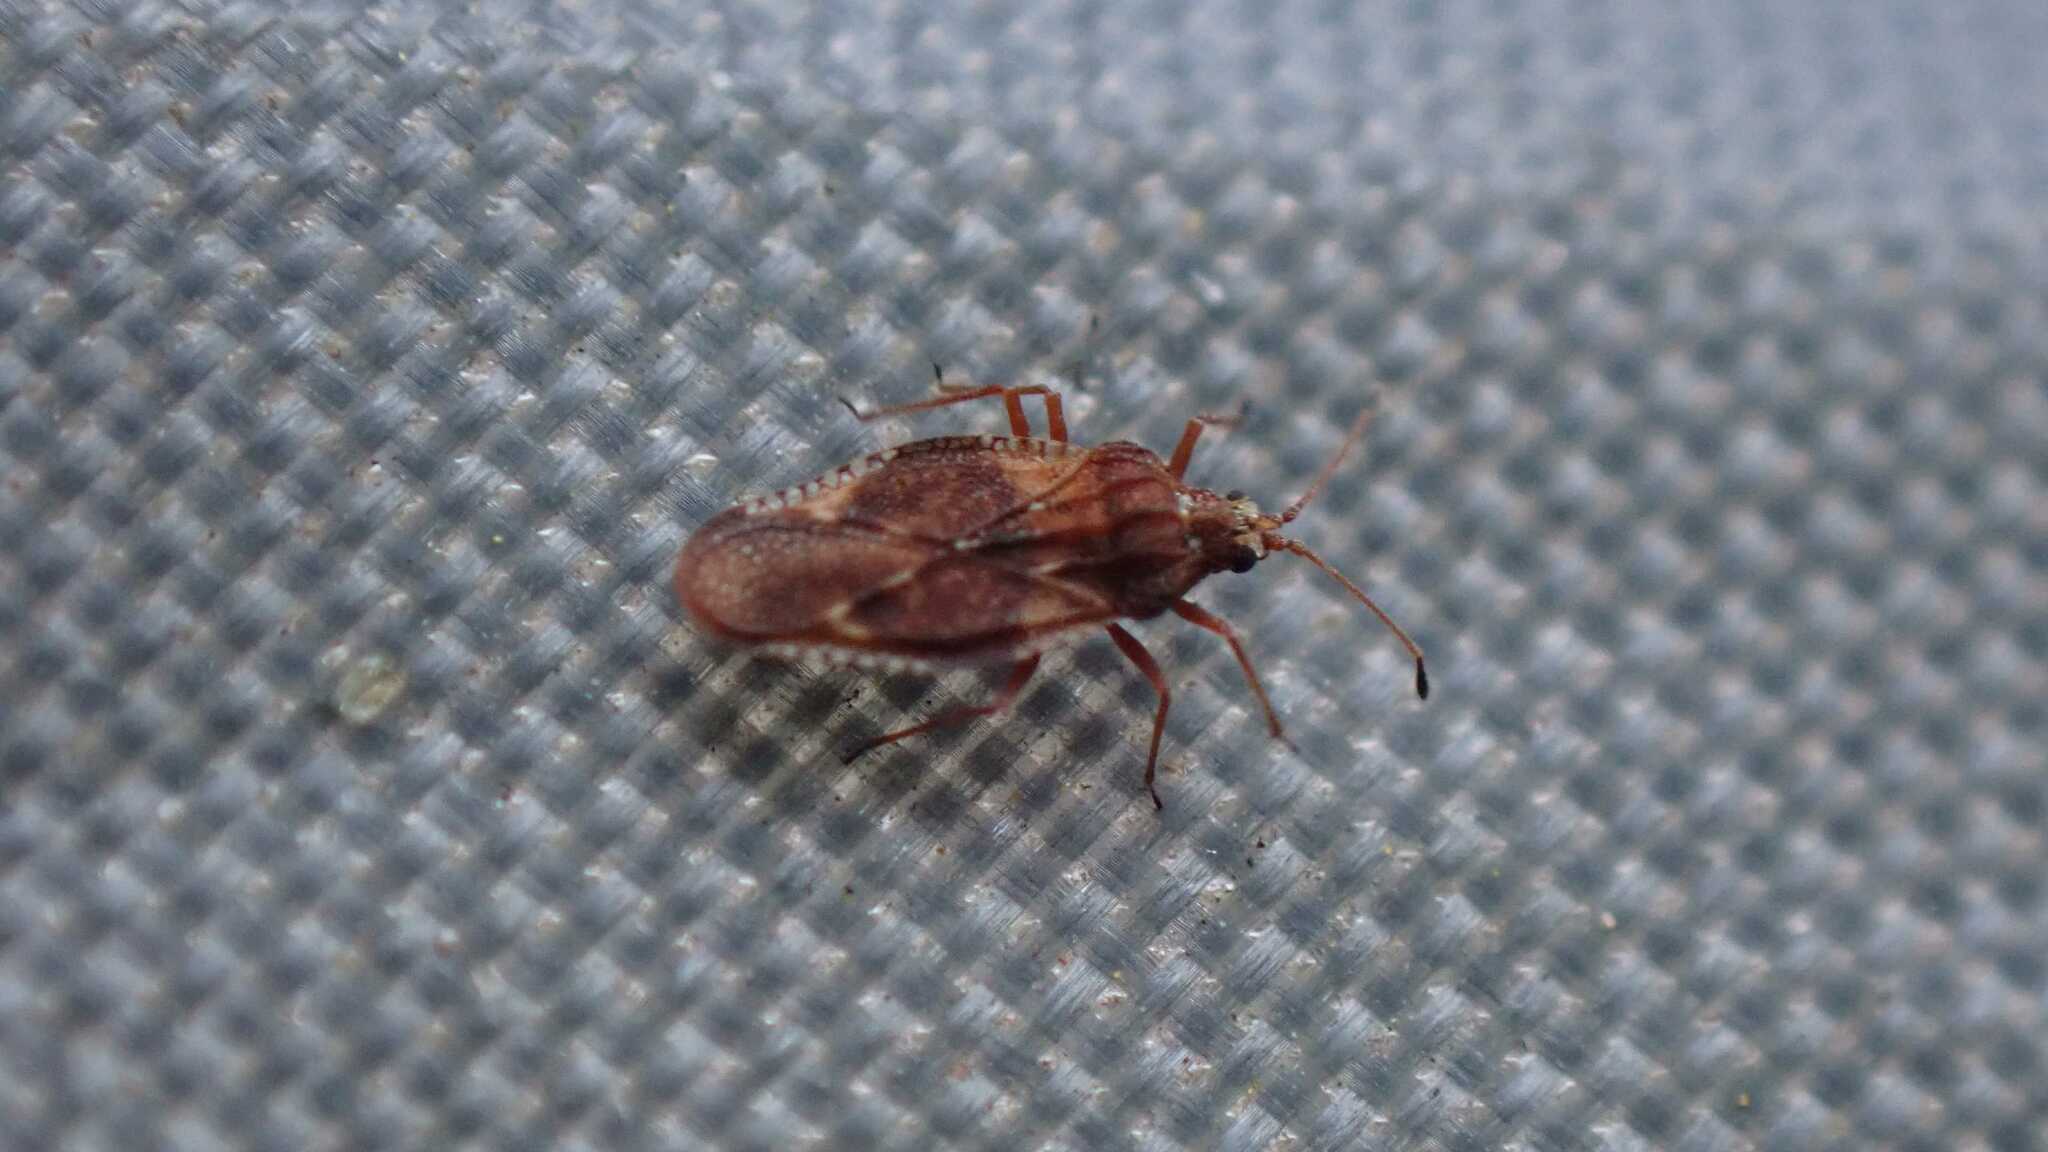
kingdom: Animalia
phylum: Arthropoda
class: Insecta
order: Hemiptera
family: Tingidae
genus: Physatocheila
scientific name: Physatocheila dumetorum
